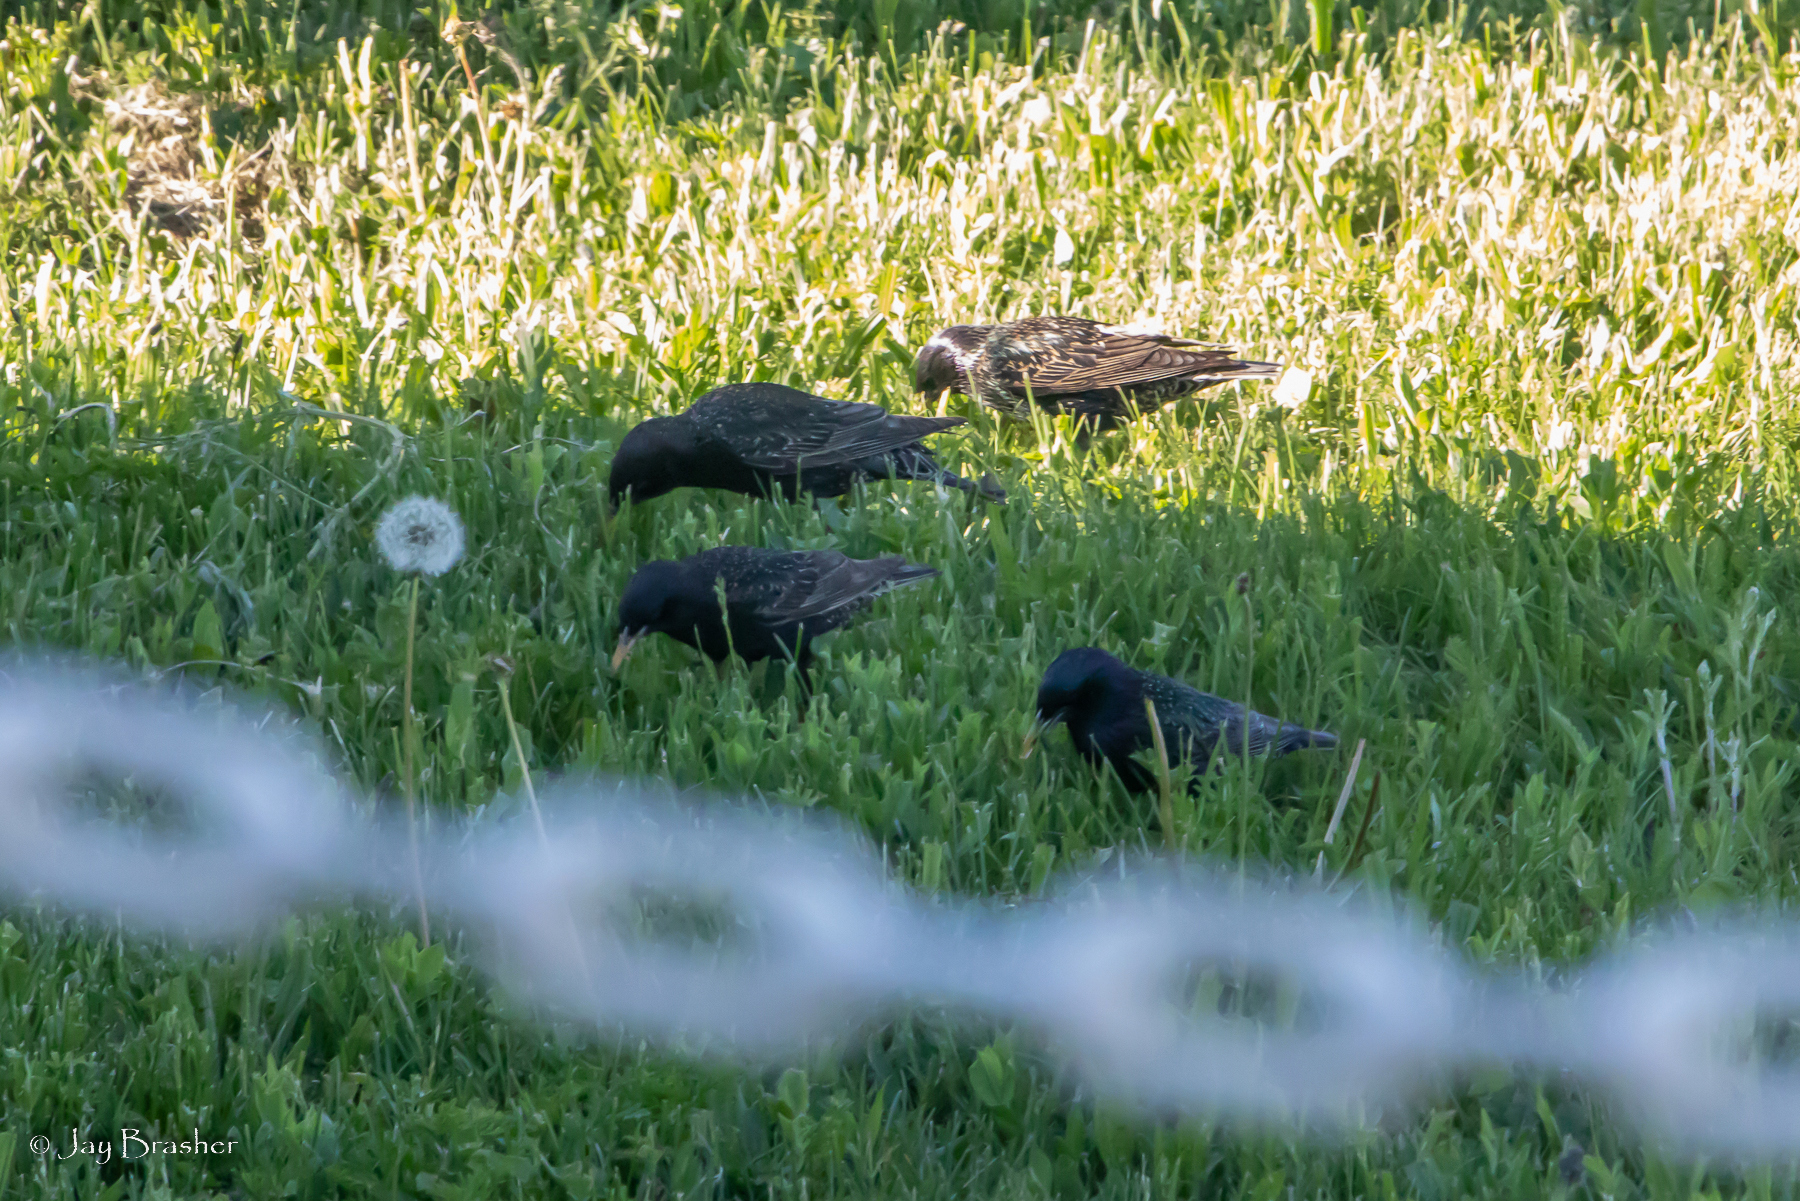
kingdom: Animalia
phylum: Chordata
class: Aves
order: Passeriformes
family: Sturnidae
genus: Sturnus
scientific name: Sturnus vulgaris
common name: Common starling
